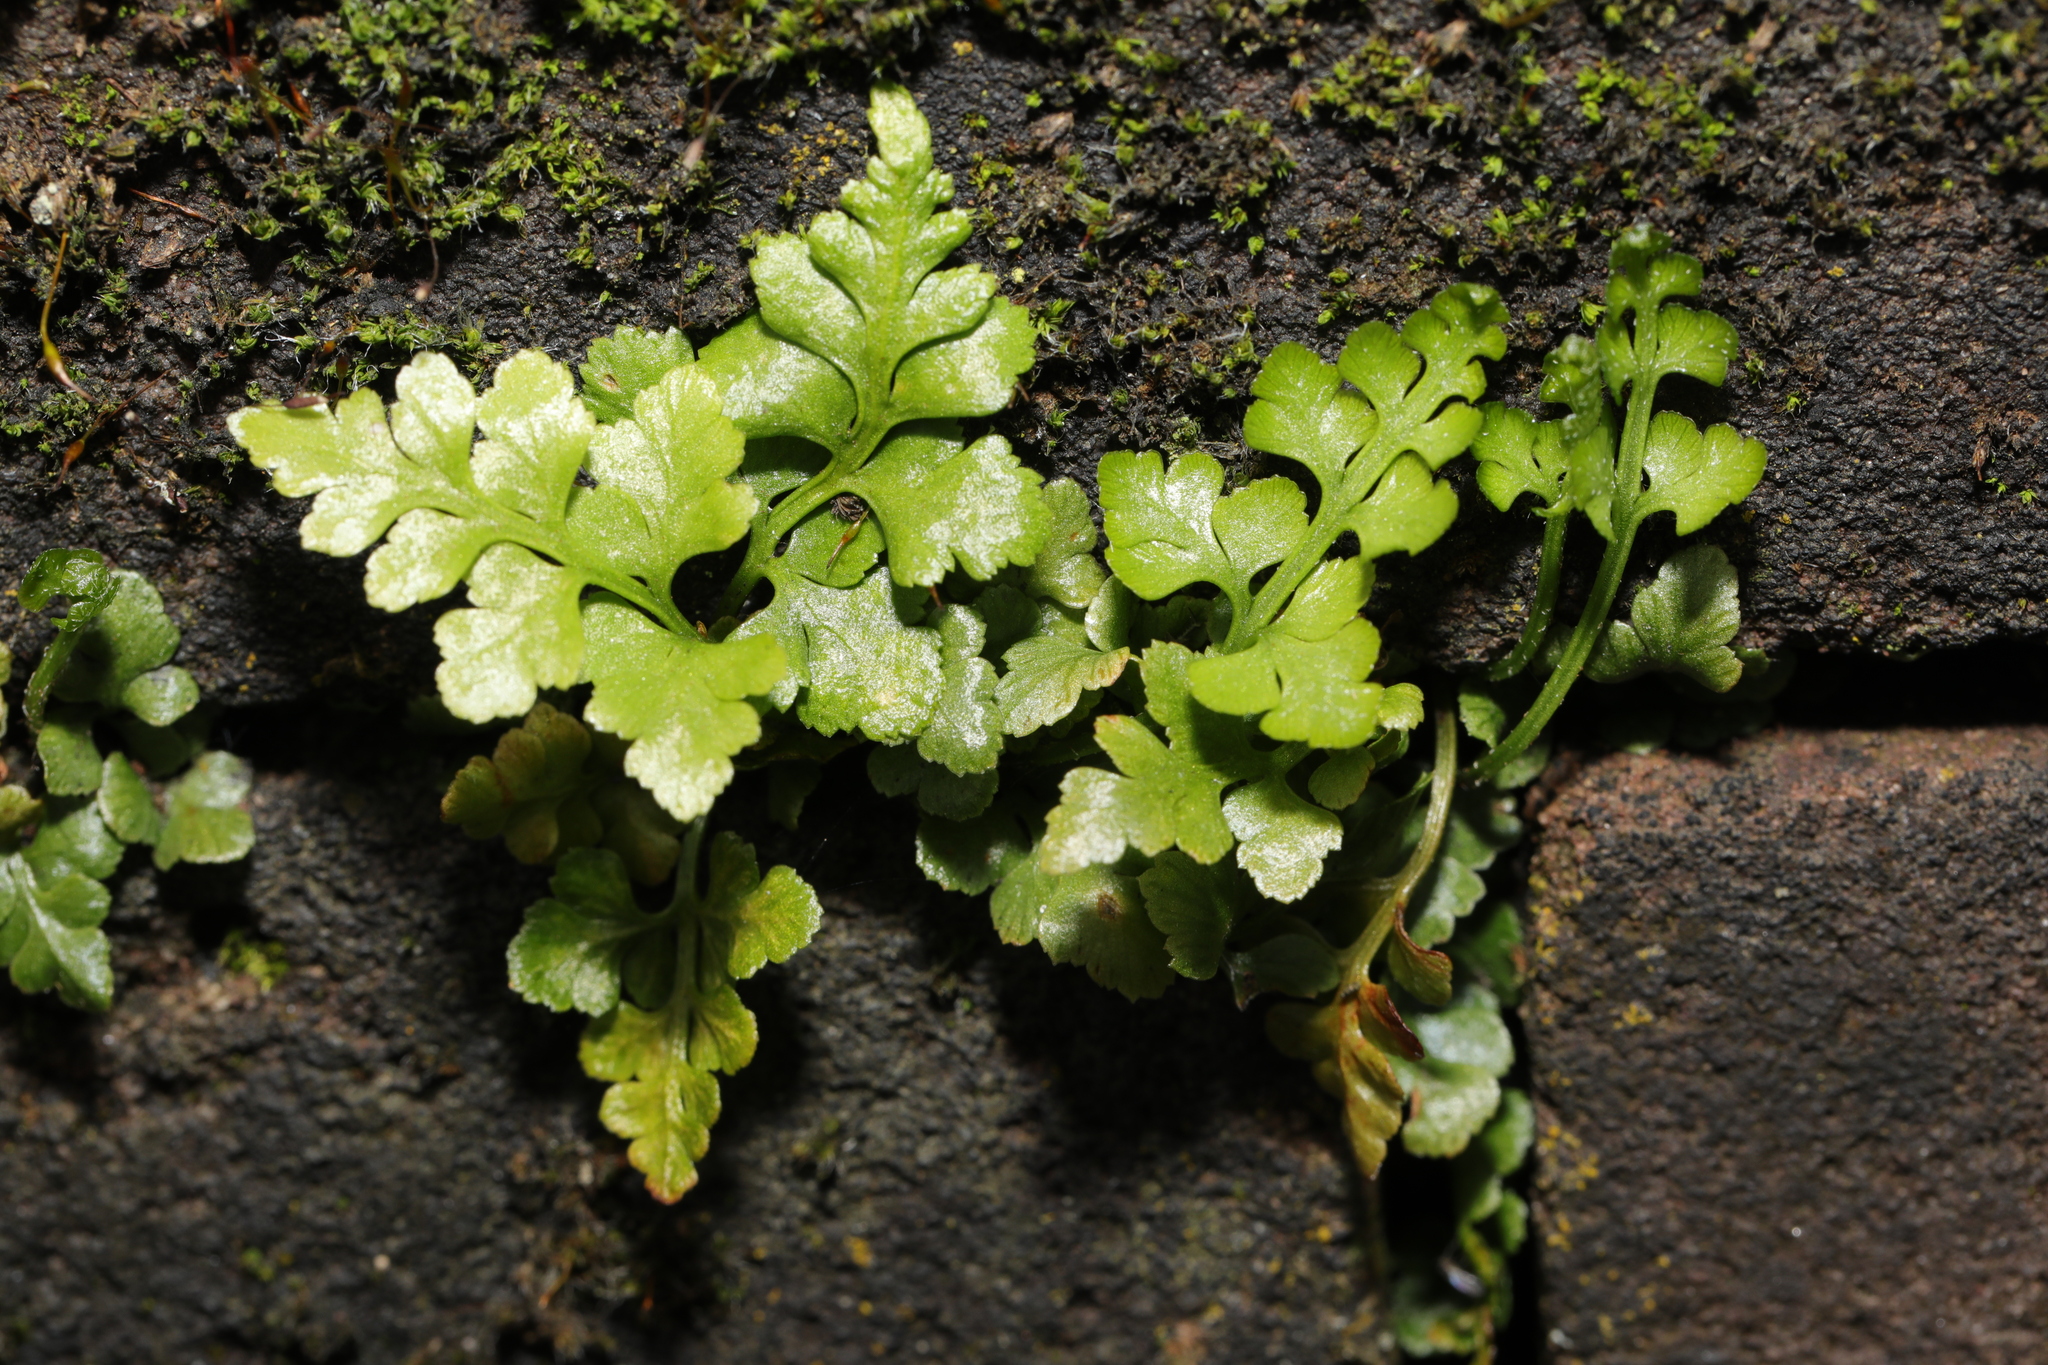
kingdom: Plantae
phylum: Tracheophyta
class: Polypodiopsida
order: Polypodiales
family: Aspleniaceae
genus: Asplenium
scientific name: Asplenium adiantum-nigrum
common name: Black spleenwort
